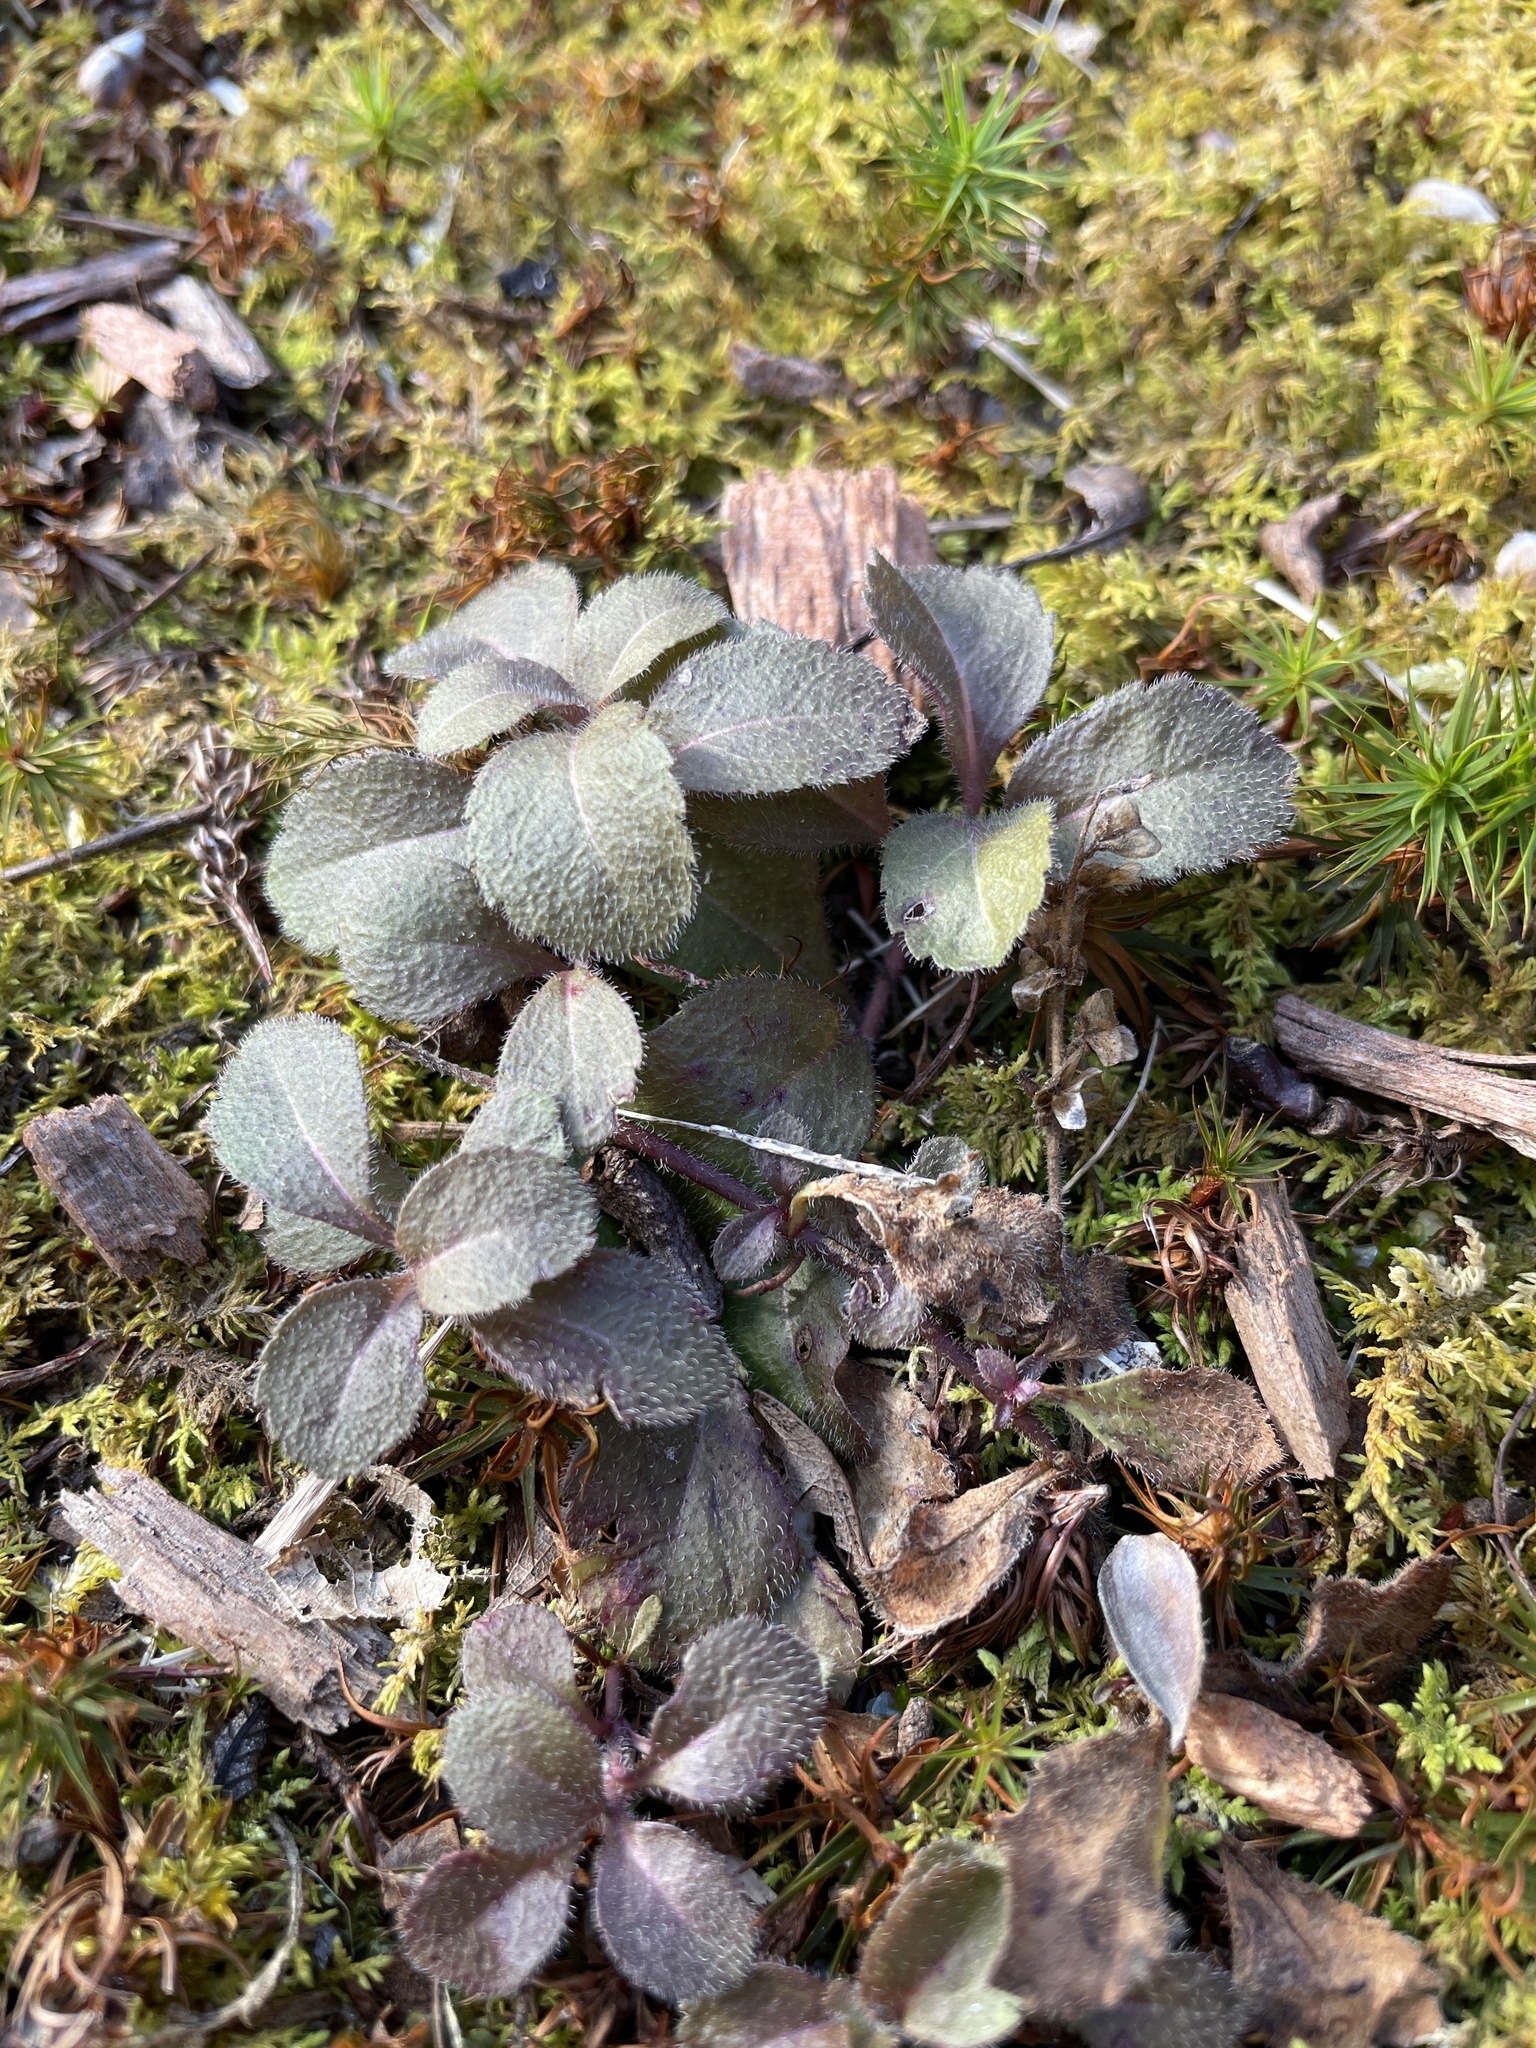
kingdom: Plantae
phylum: Tracheophyta
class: Magnoliopsida
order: Lamiales
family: Plantaginaceae
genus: Veronica
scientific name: Veronica officinalis
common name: Common speedwell
